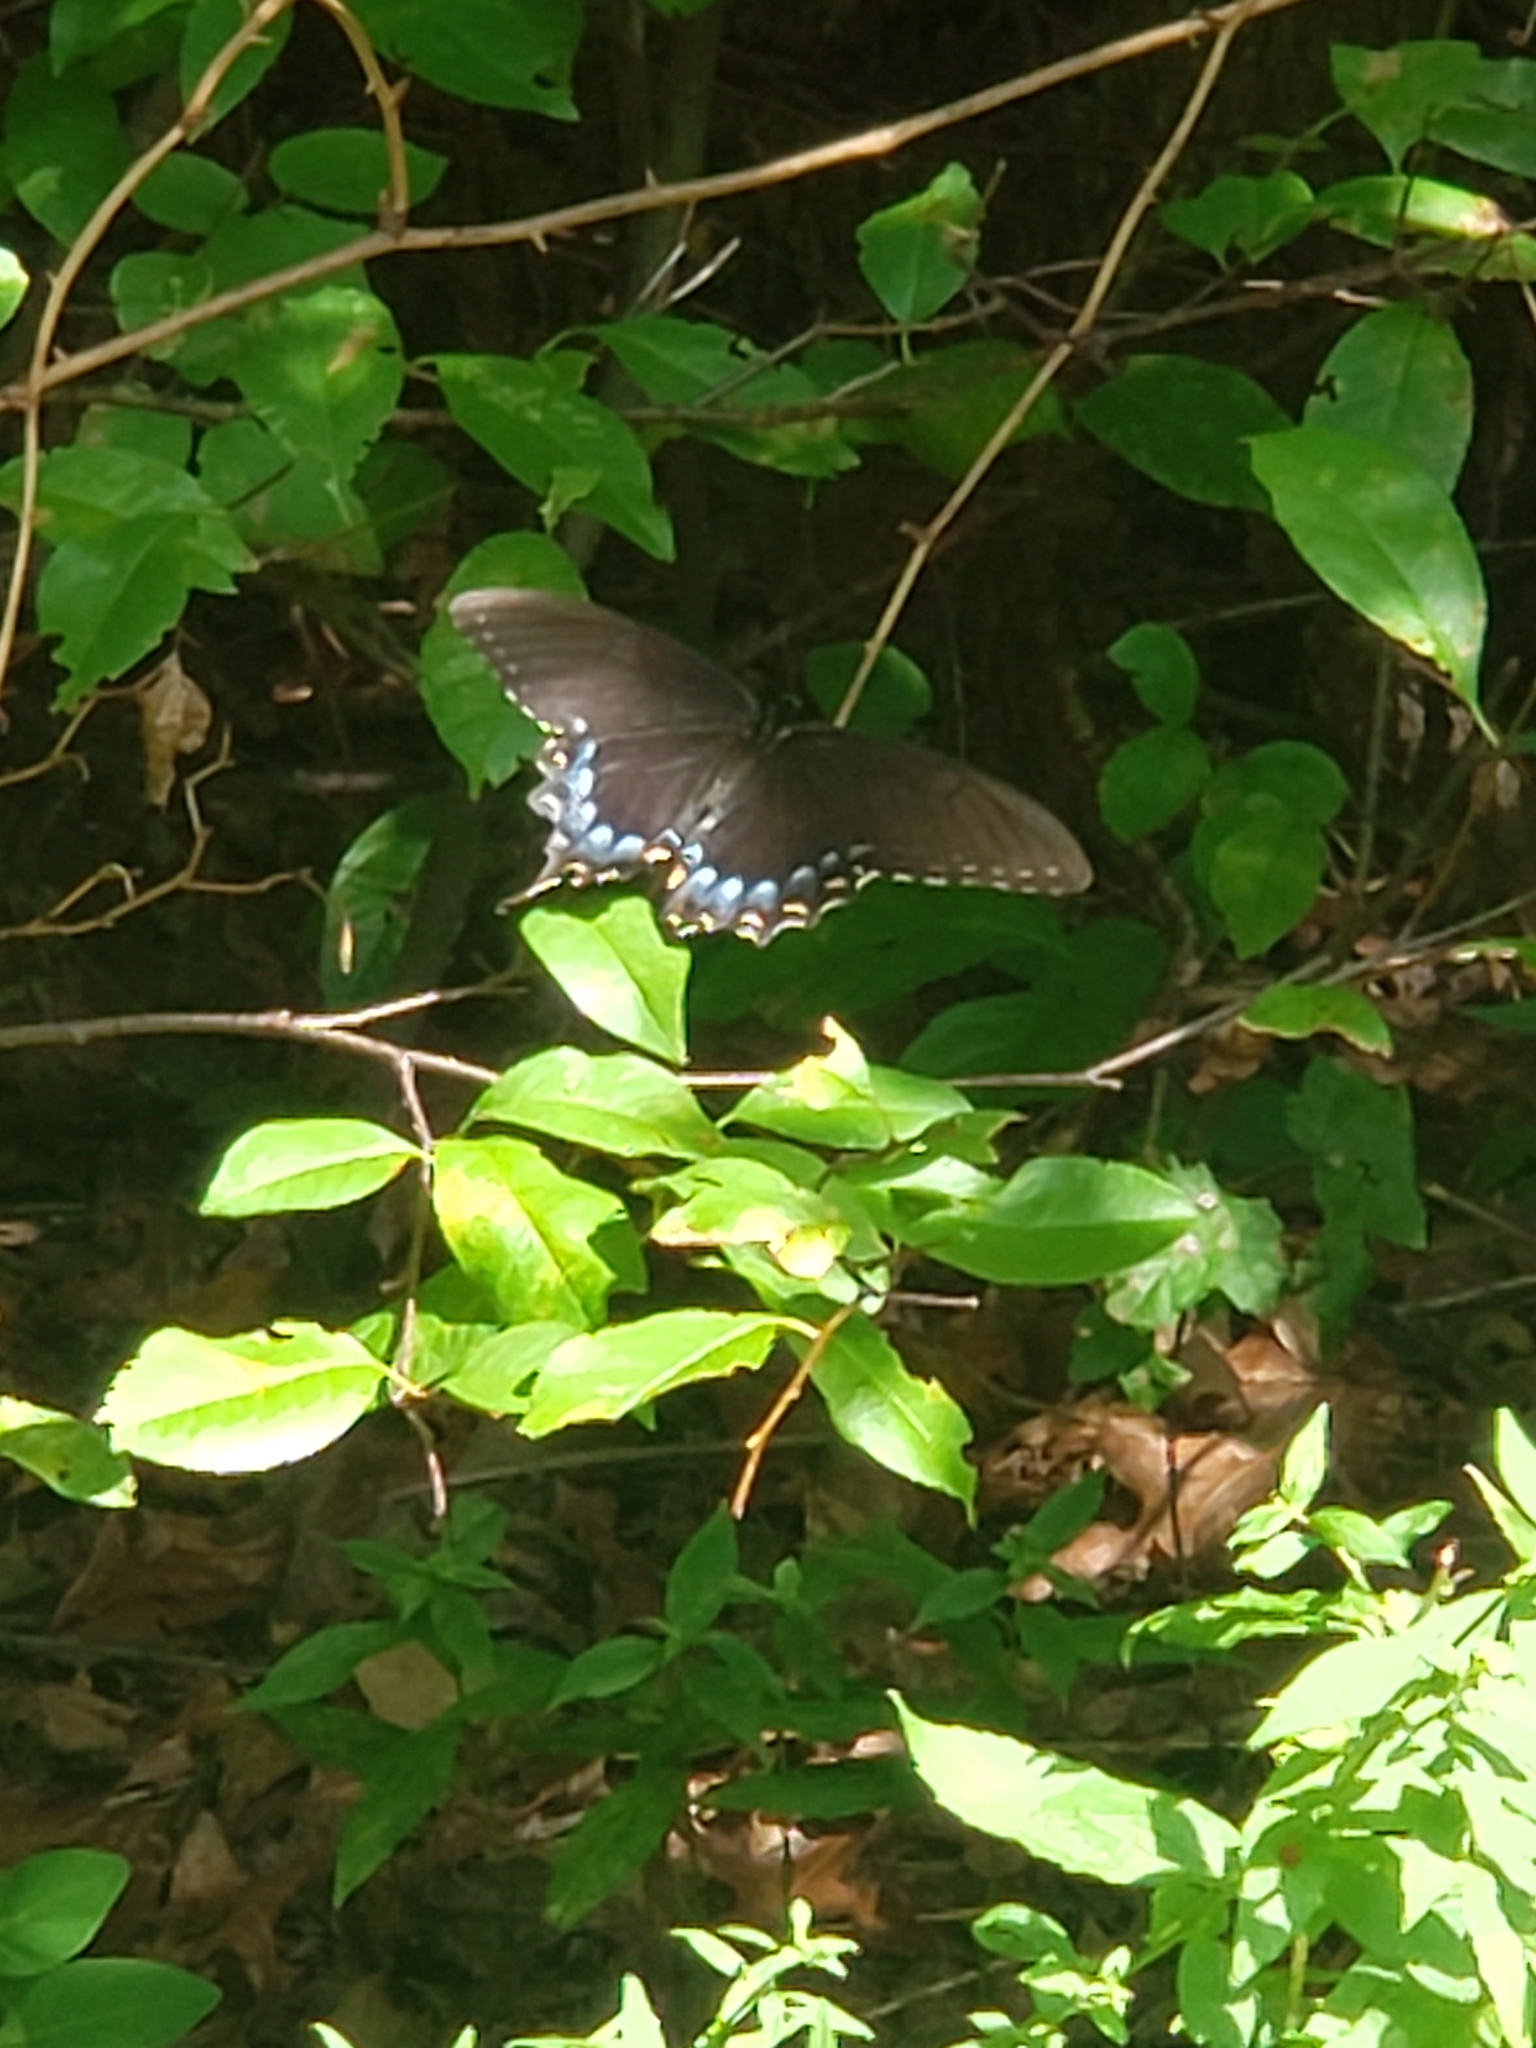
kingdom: Animalia
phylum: Arthropoda
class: Insecta
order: Lepidoptera
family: Papilionidae
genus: Papilio
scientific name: Papilio glaucus
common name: Tiger swallowtail
